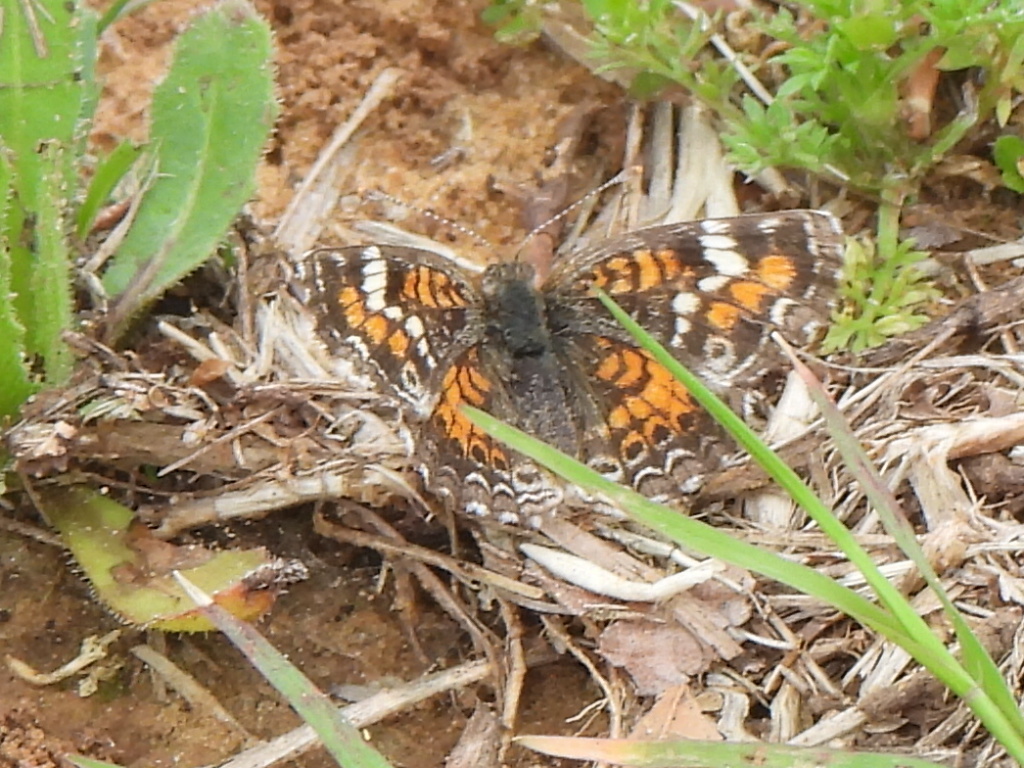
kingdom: Animalia
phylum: Arthropoda
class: Insecta
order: Lepidoptera
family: Nymphalidae
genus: Phyciodes
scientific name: Phyciodes phaon
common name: Phaon crescent
